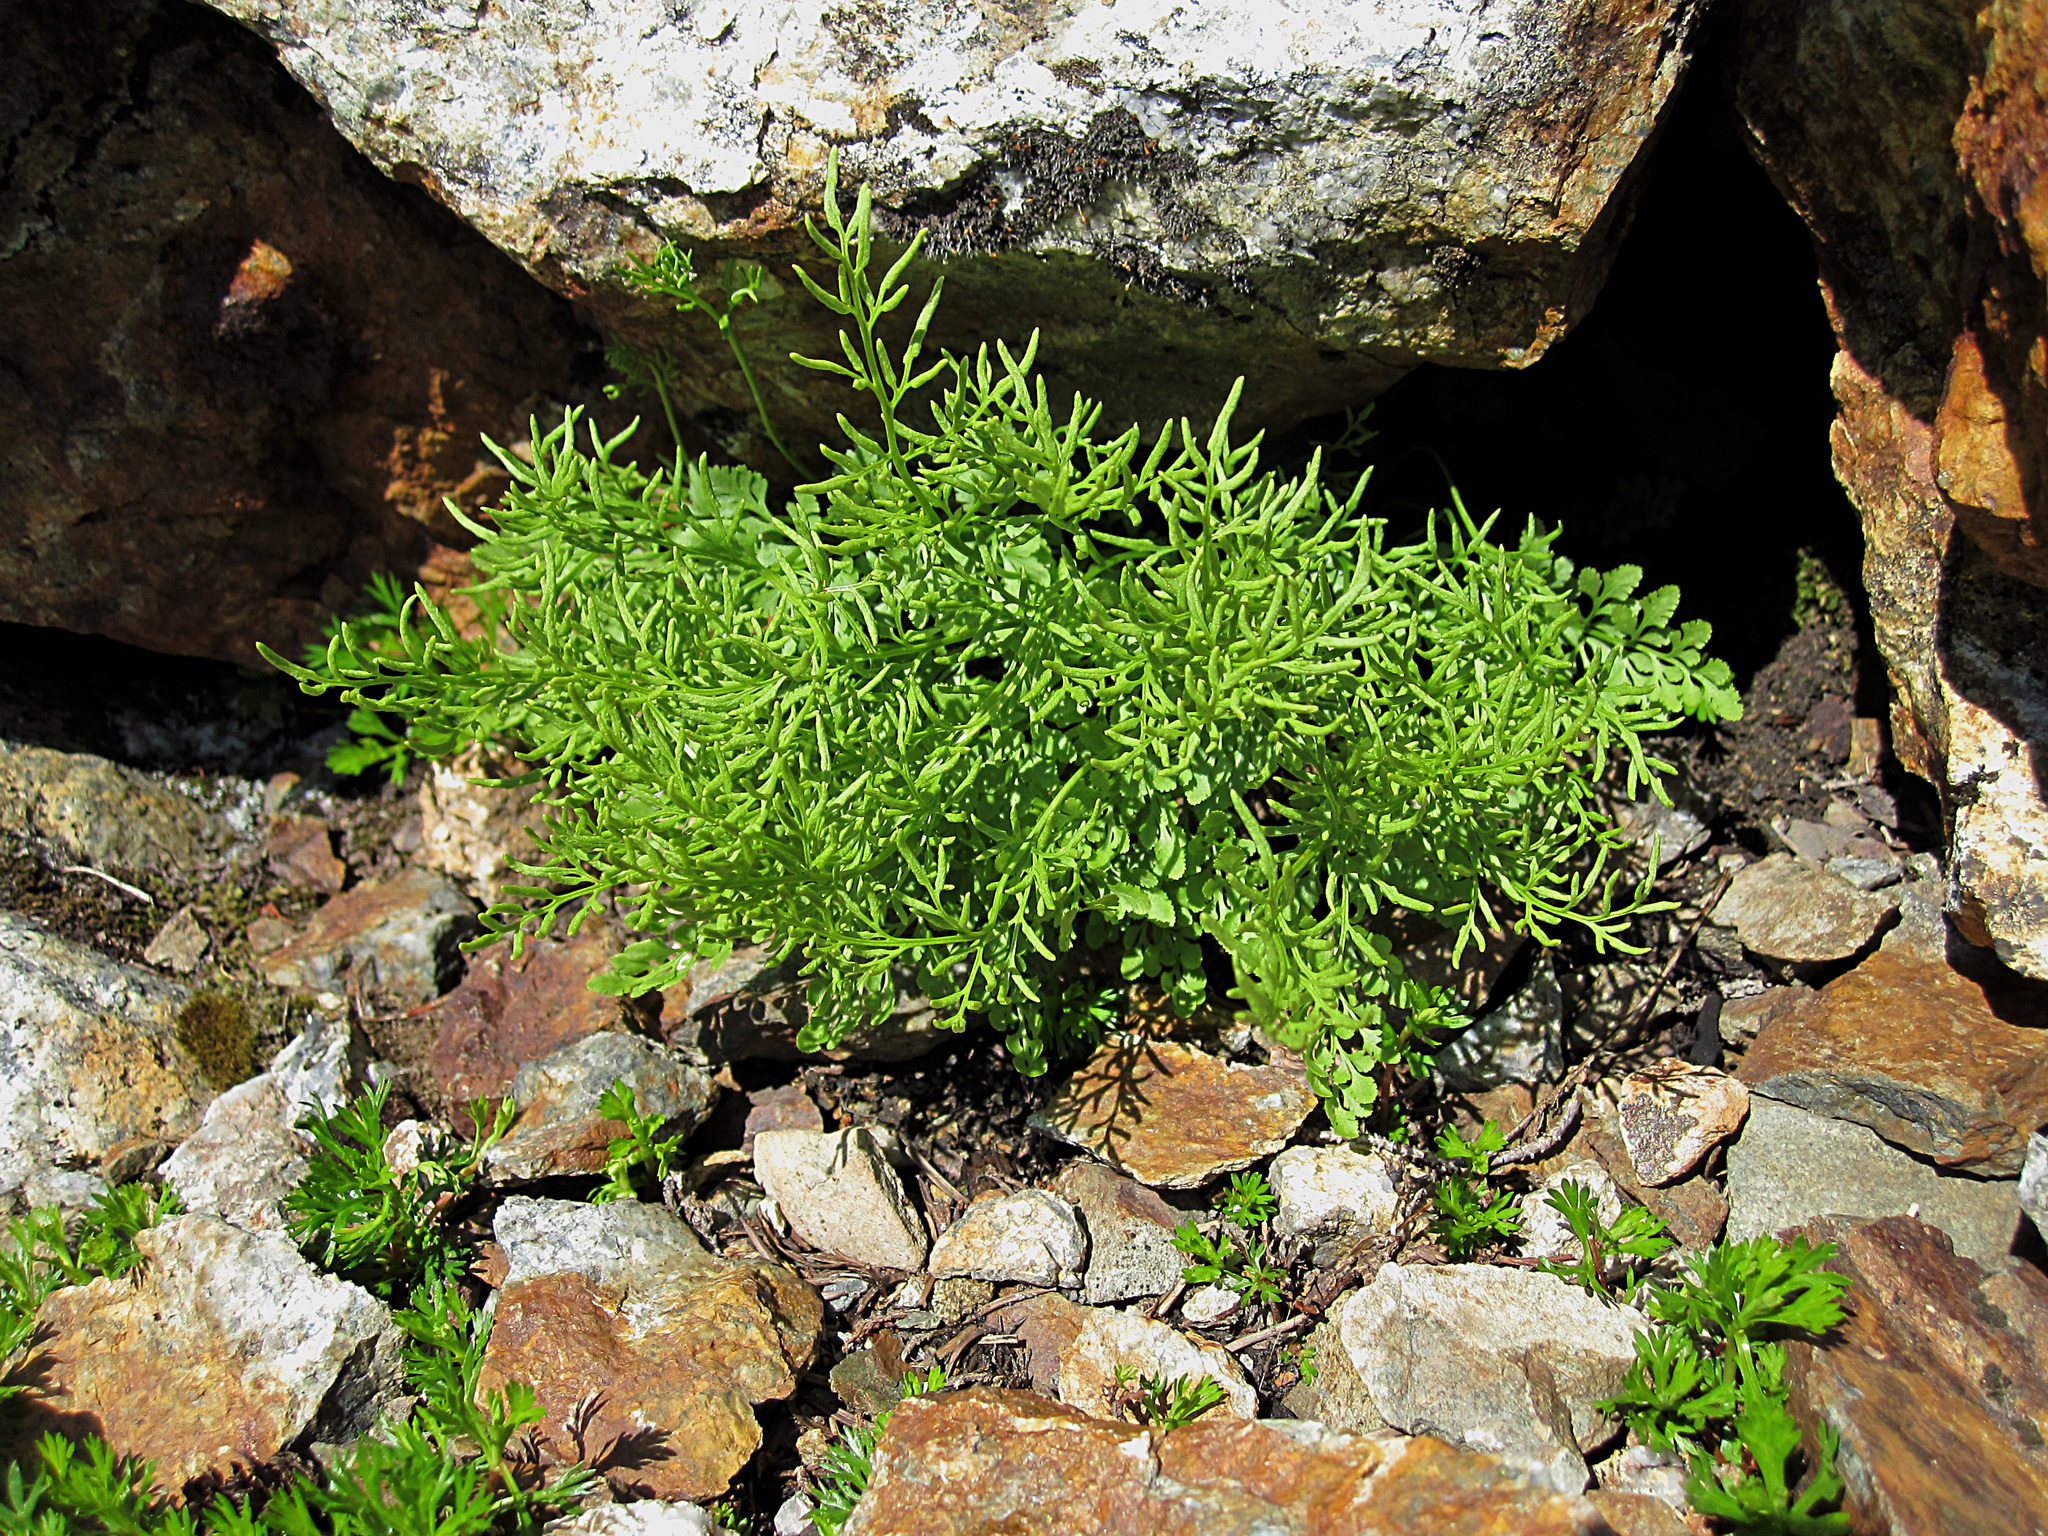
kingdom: Plantae
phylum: Tracheophyta
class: Polypodiopsida
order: Polypodiales
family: Pteridaceae
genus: Cryptogramma
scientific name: Cryptogramma cascadensis
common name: Cascade parsley fern
